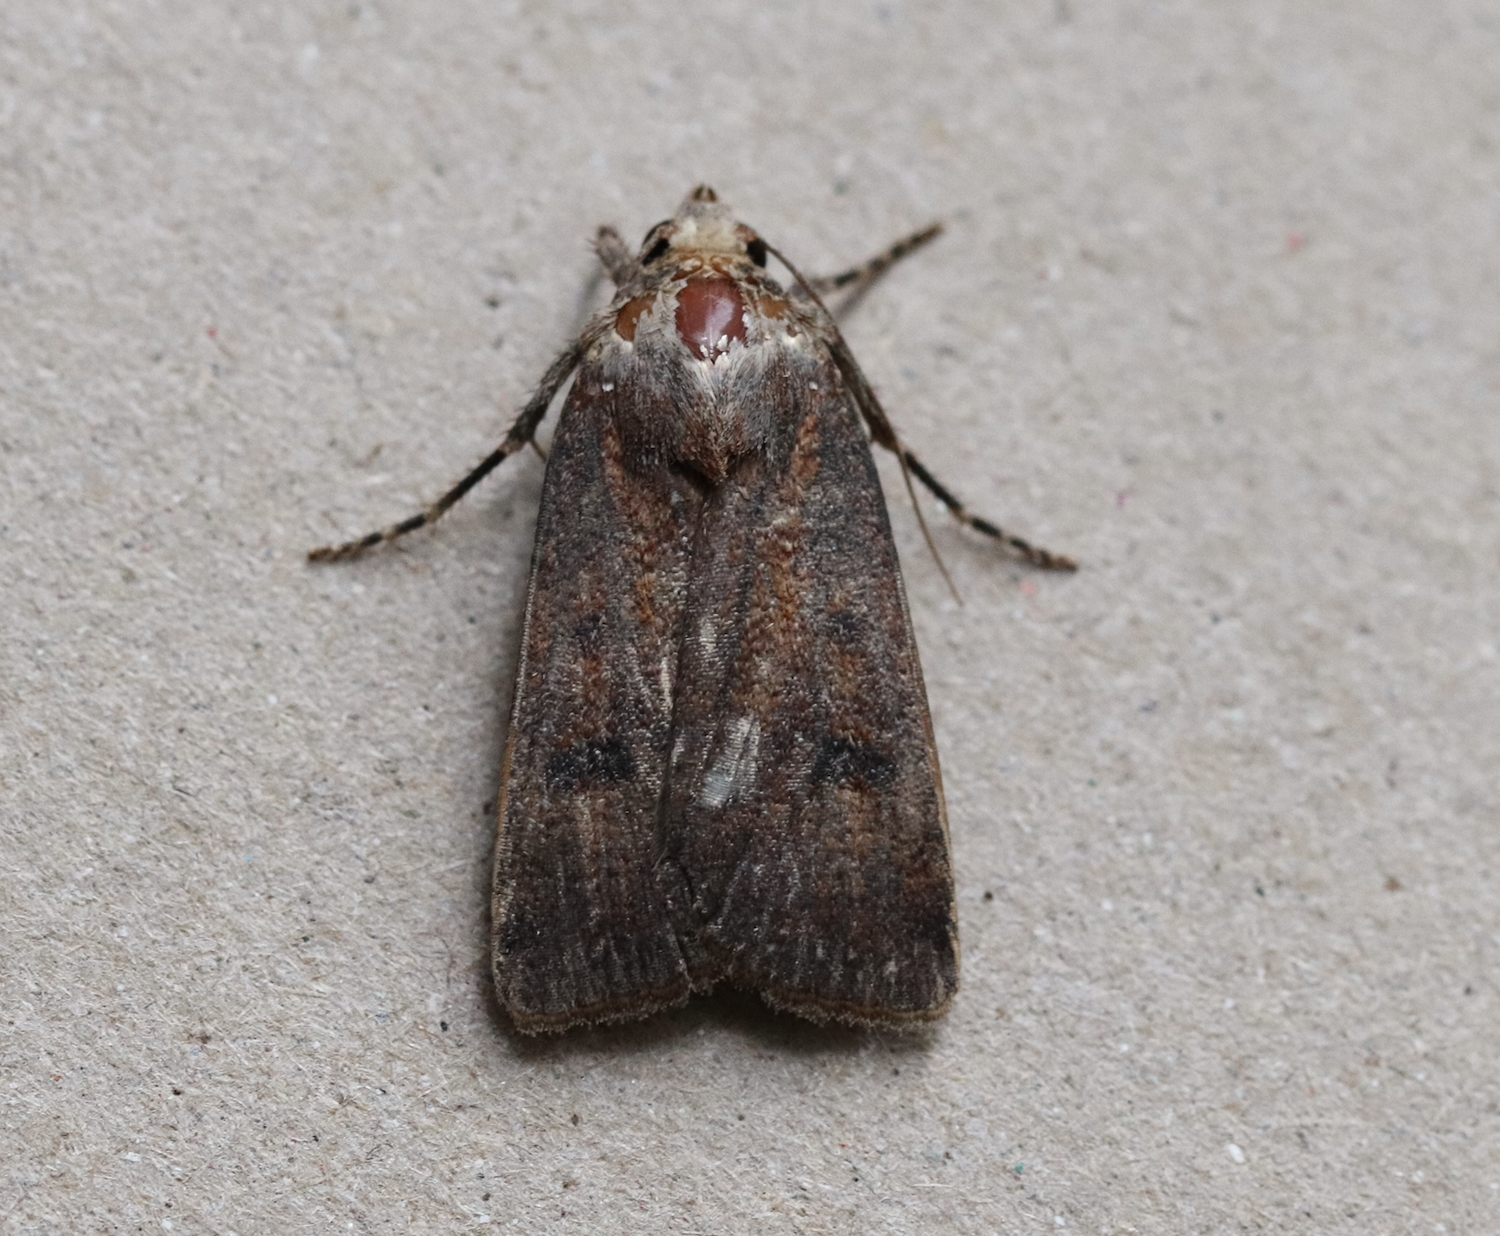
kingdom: Animalia
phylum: Arthropoda
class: Insecta
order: Lepidoptera
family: Noctuidae
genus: Agrotis
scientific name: Agrotis trux
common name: Crescent dart
